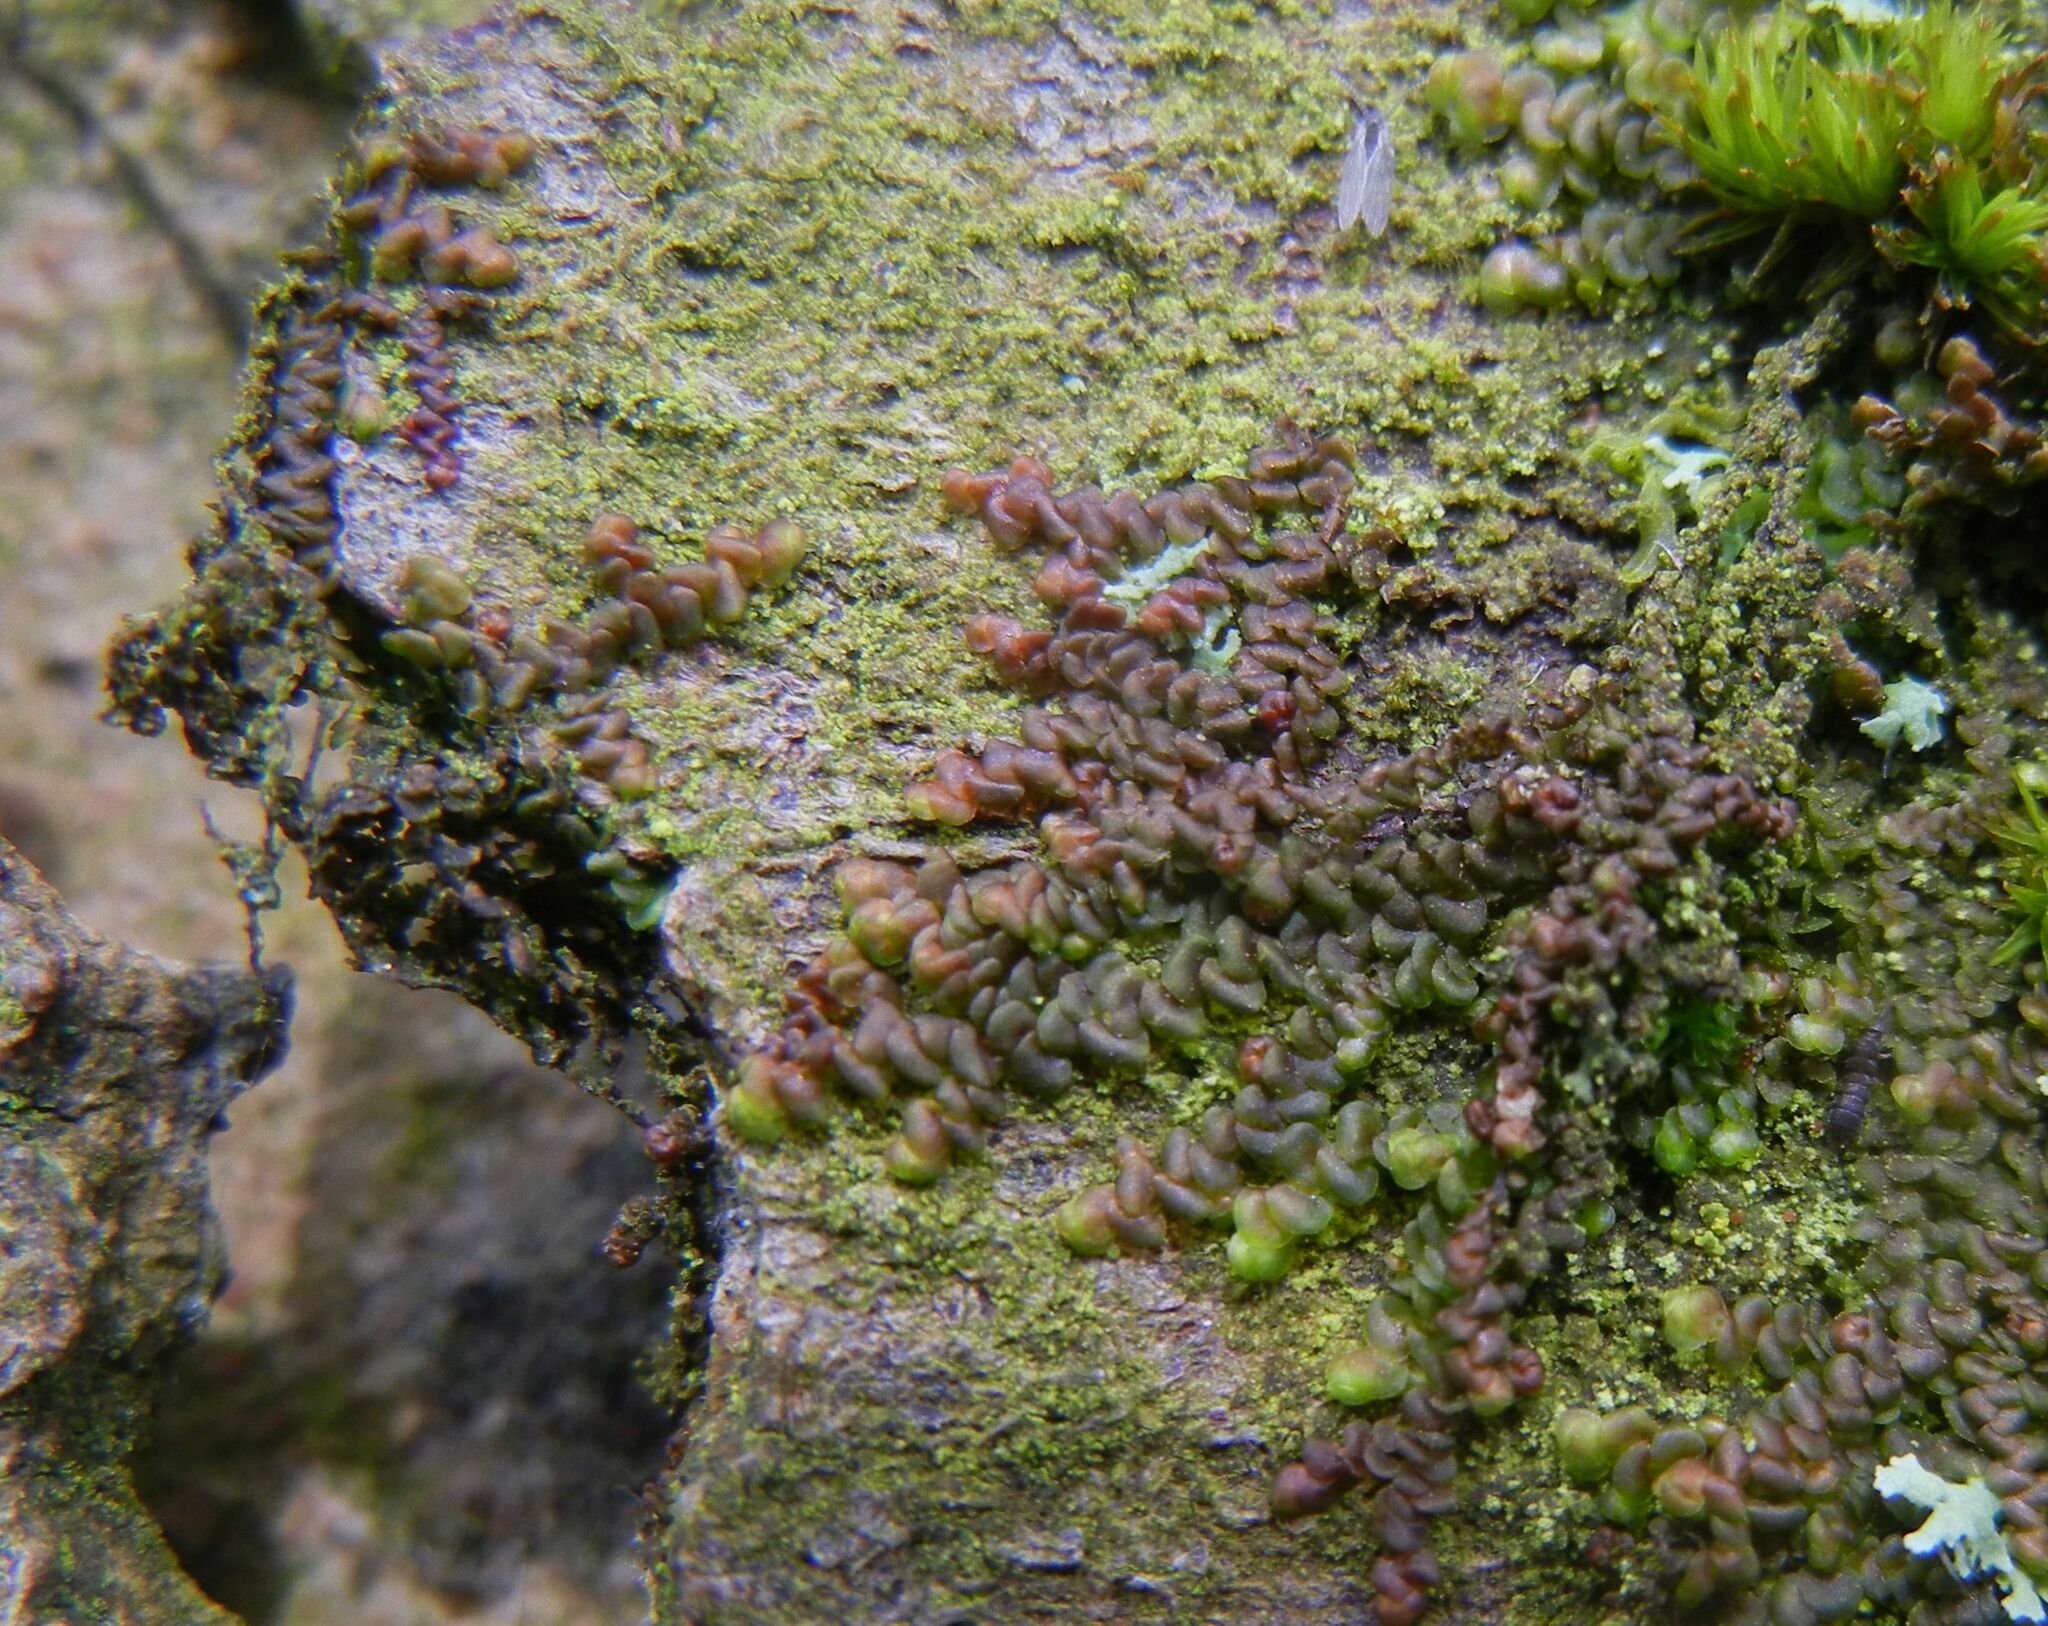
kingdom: Plantae
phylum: Marchantiophyta
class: Jungermanniopsida
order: Porellales
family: Frullaniaceae
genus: Frullania
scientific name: Frullania dilatata
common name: Dilated scalewort
